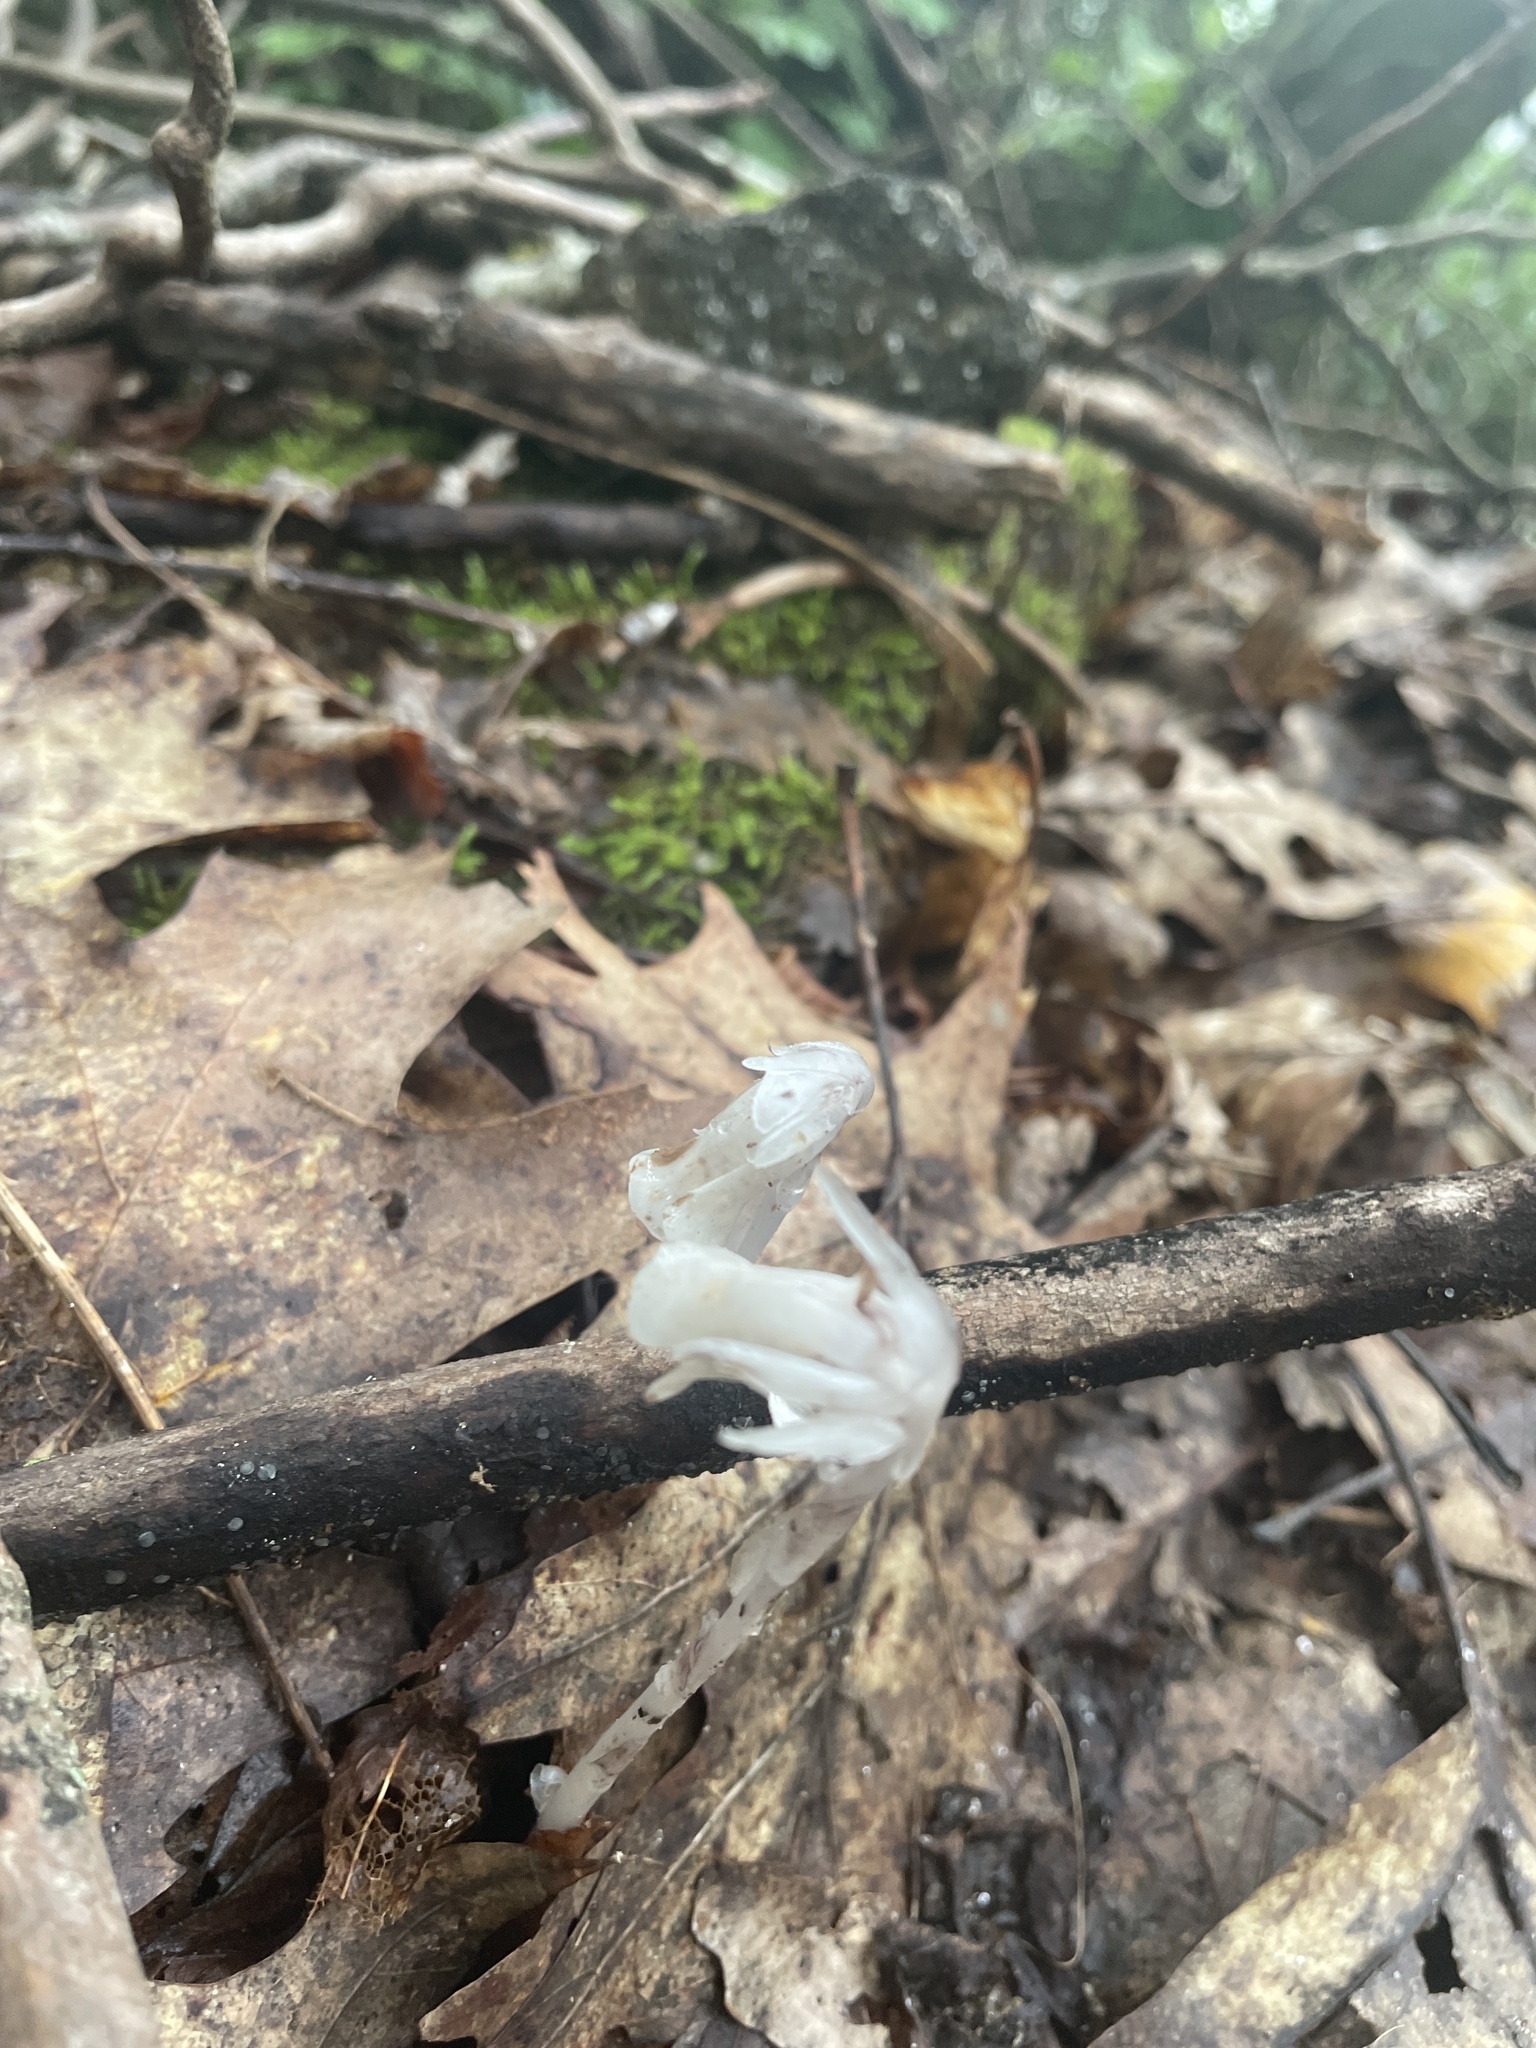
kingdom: Plantae
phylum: Tracheophyta
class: Magnoliopsida
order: Ericales
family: Ericaceae
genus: Monotropa
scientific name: Monotropa uniflora
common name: Convulsion root
